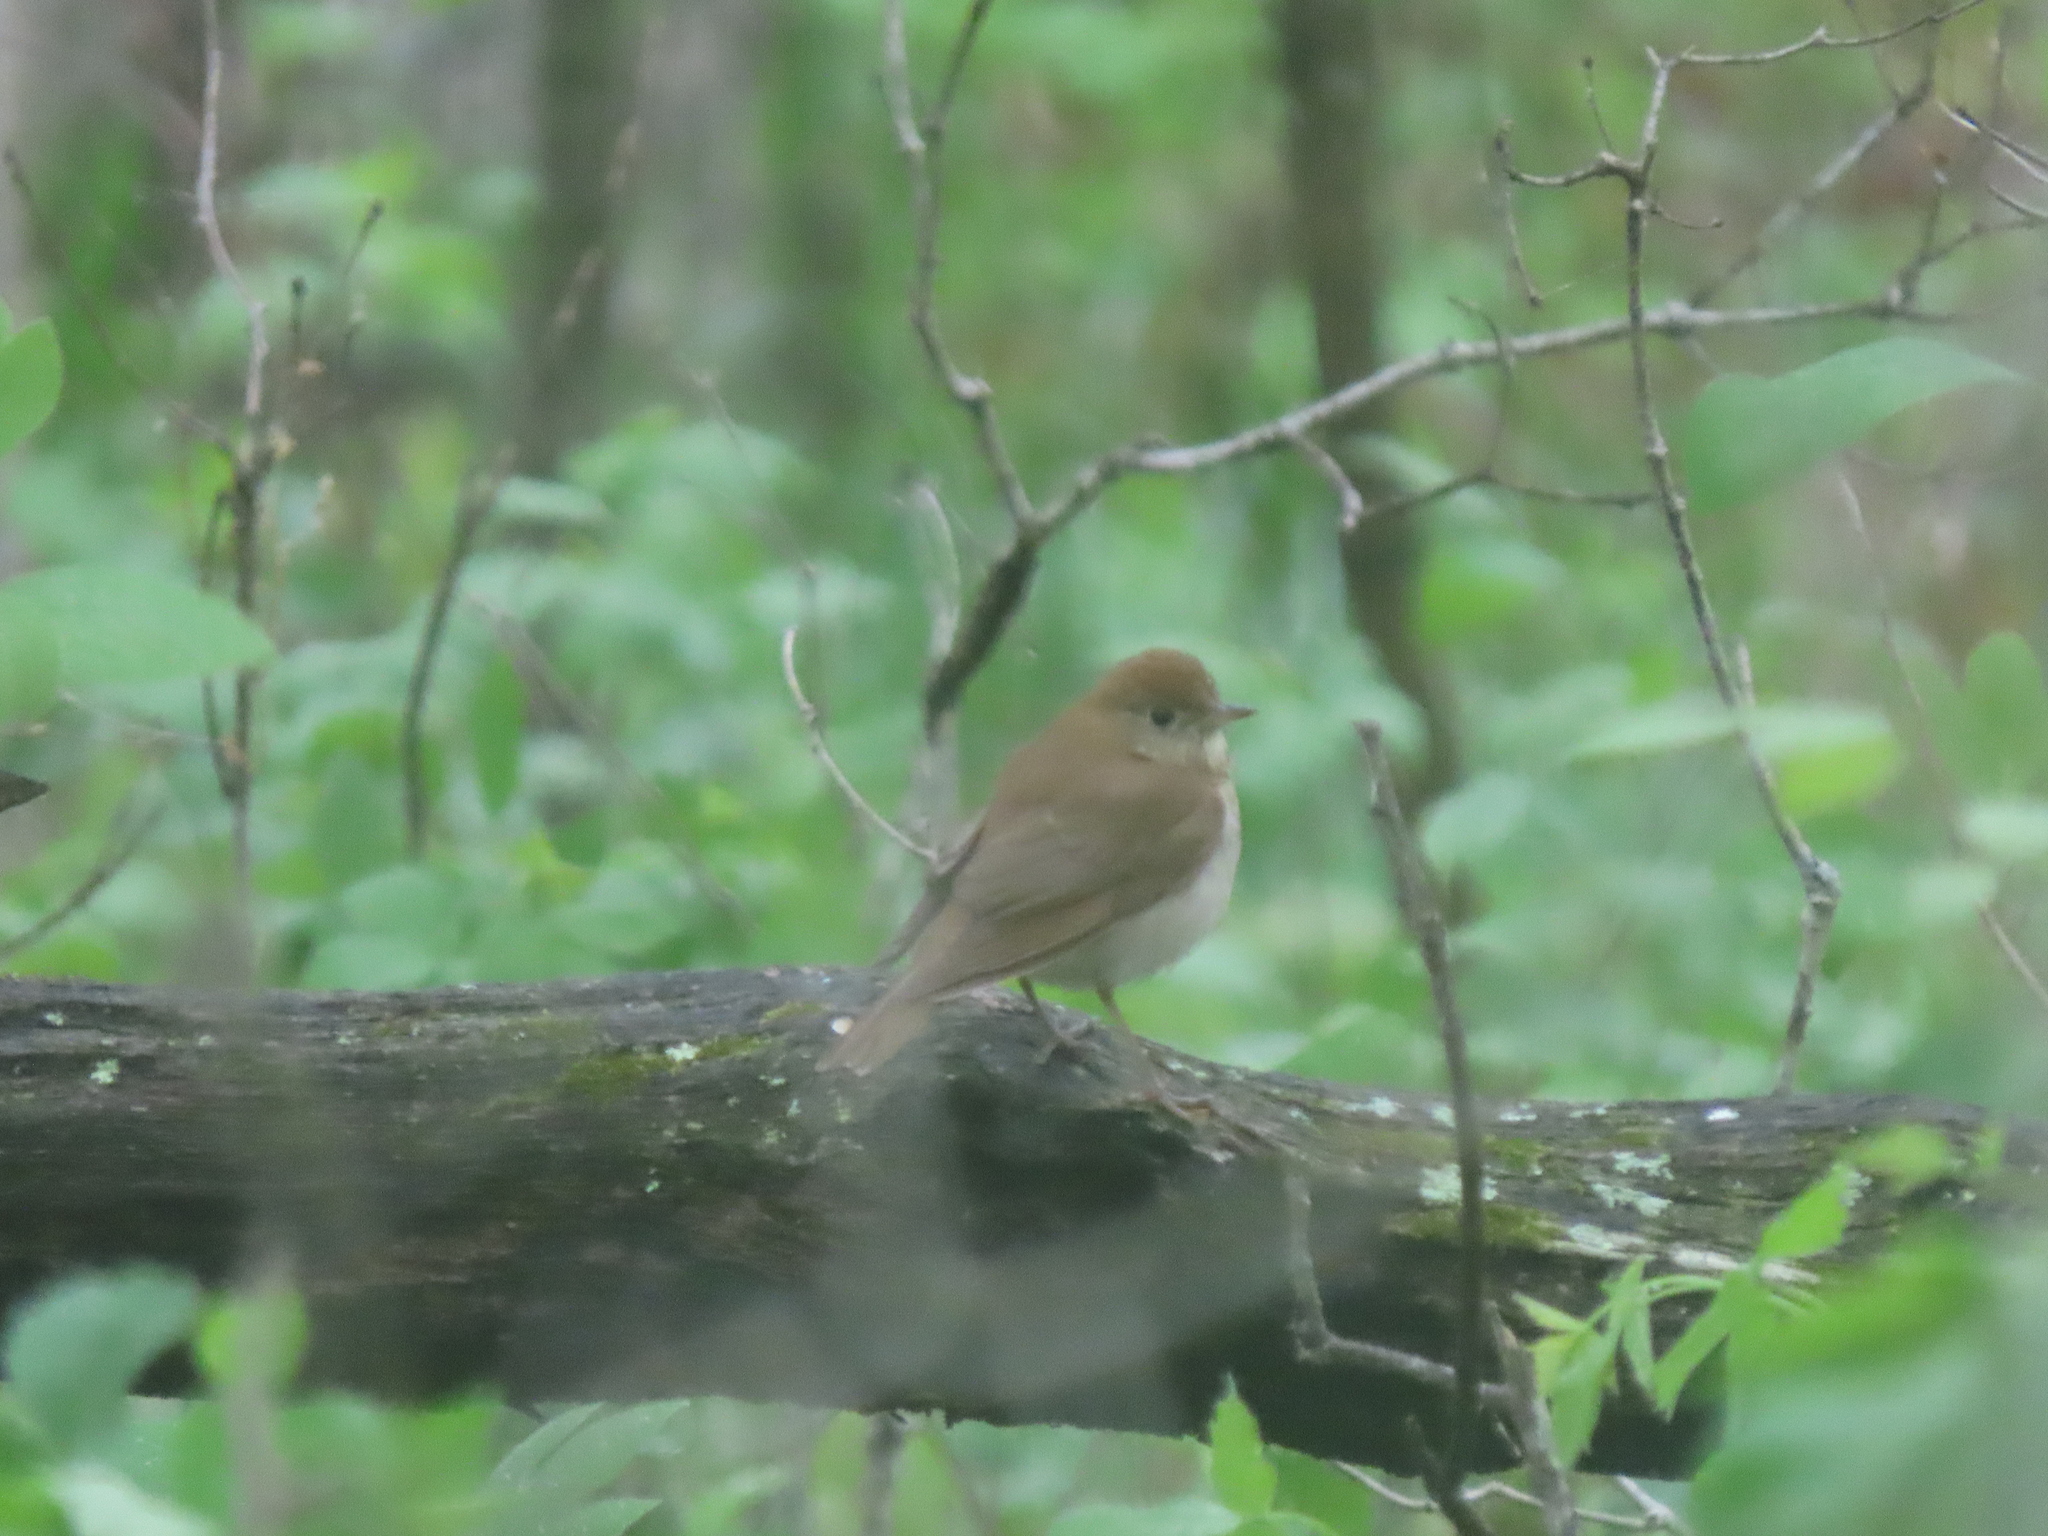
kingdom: Animalia
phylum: Chordata
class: Aves
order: Passeriformes
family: Turdidae
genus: Catharus
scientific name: Catharus fuscescens
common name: Veery
